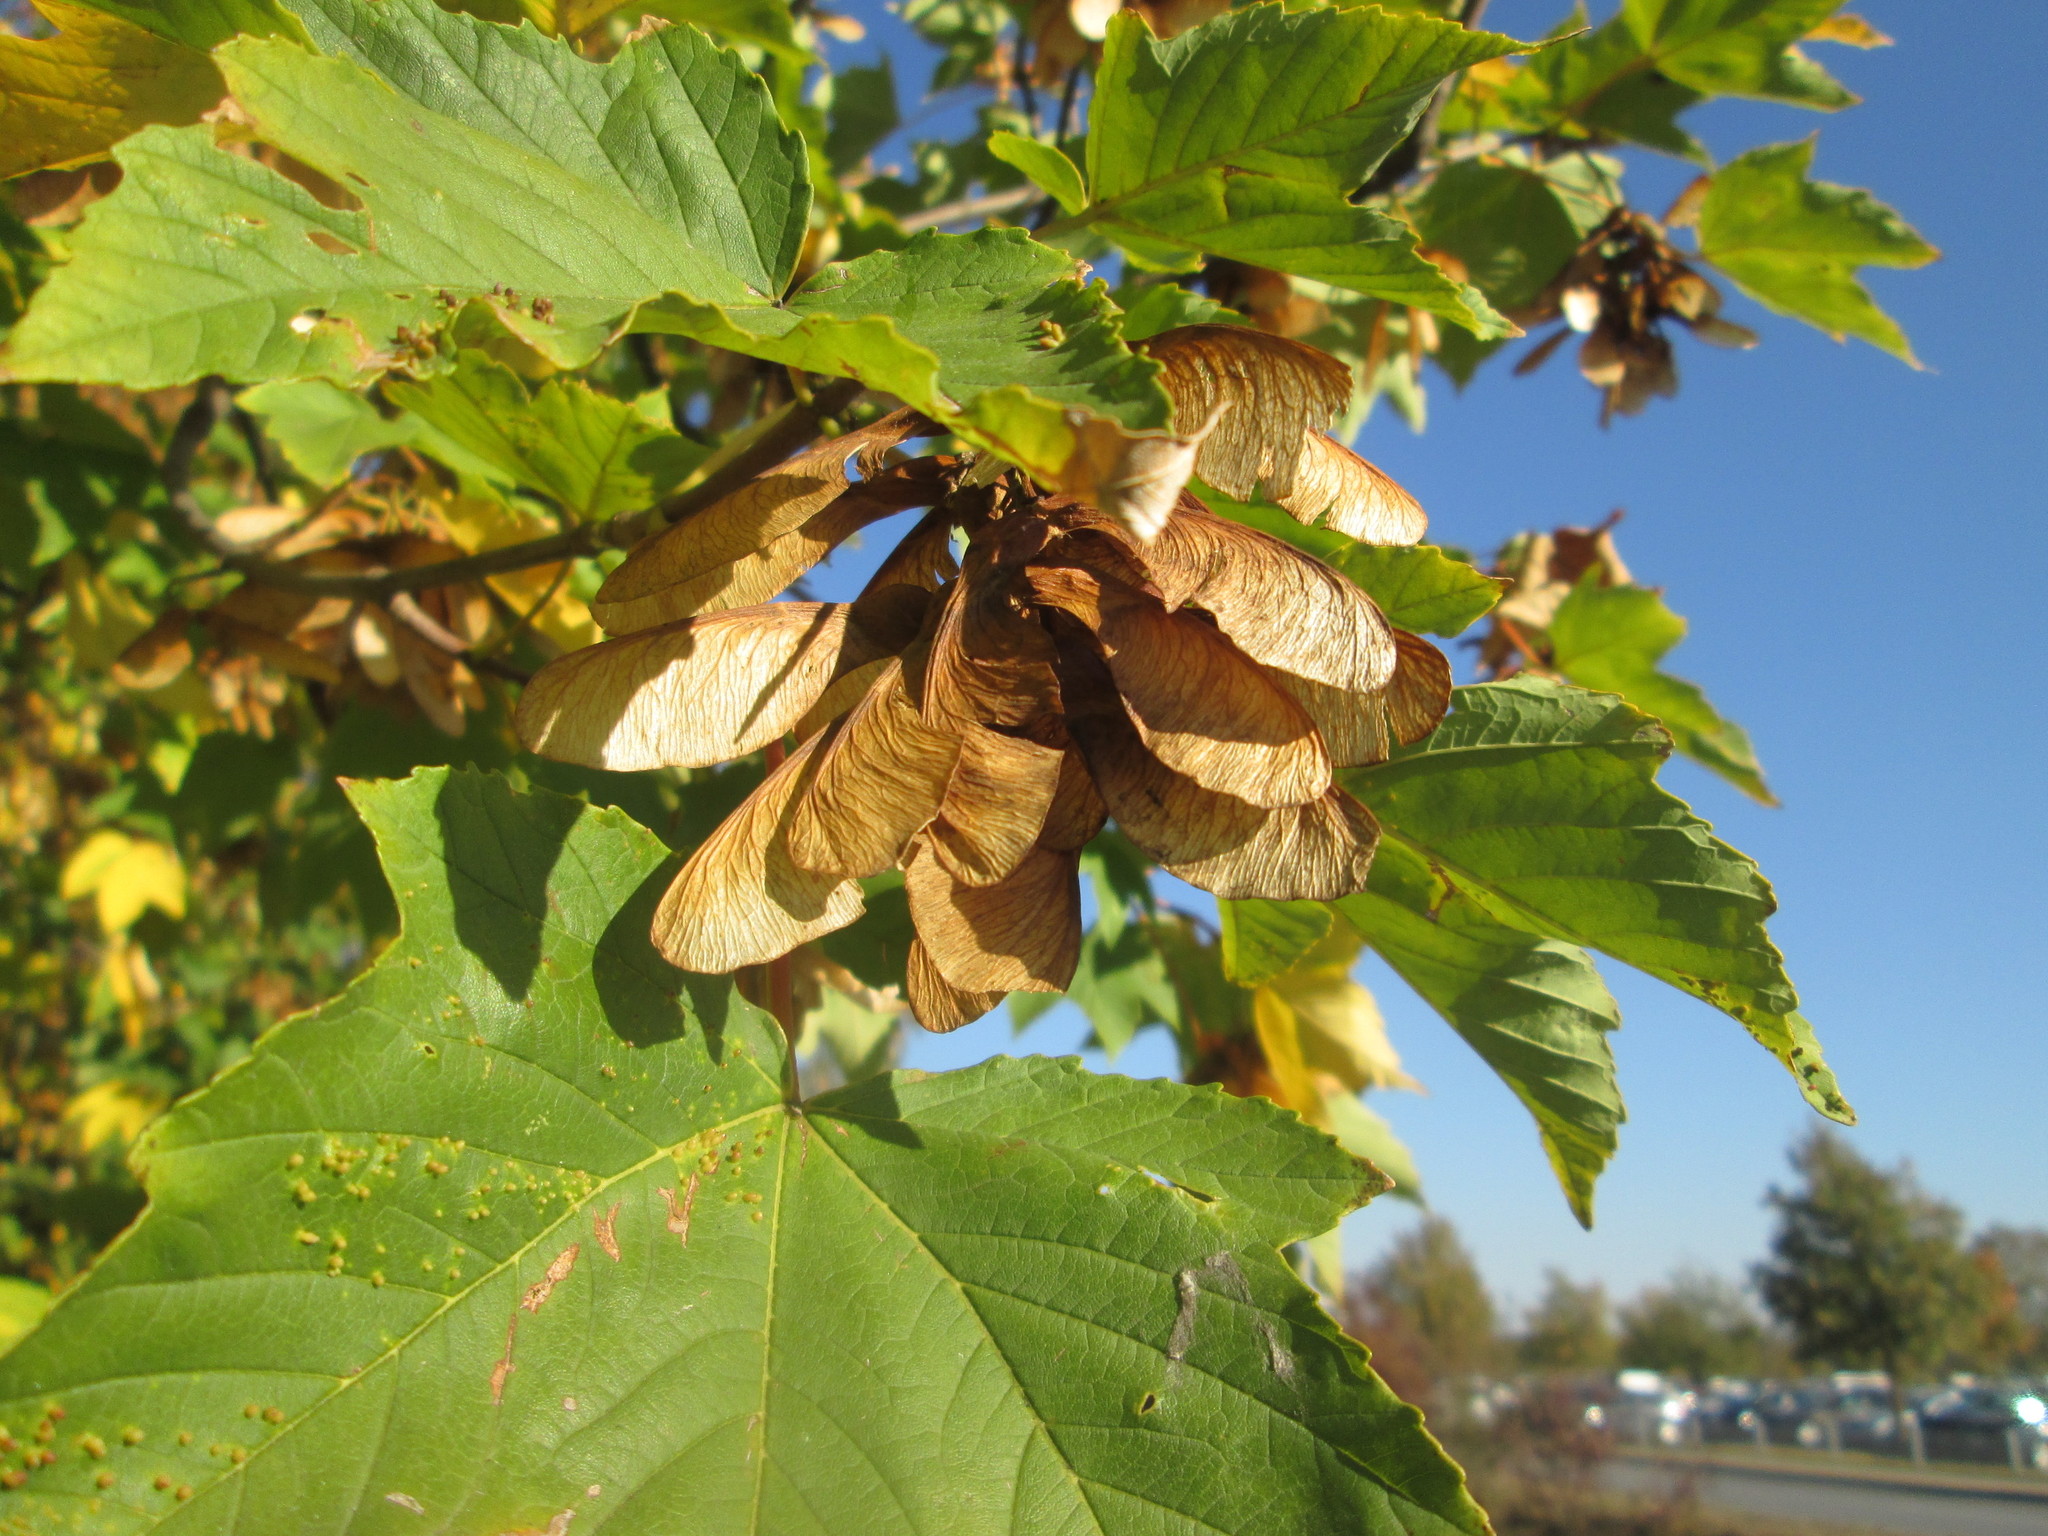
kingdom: Plantae
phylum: Tracheophyta
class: Magnoliopsida
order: Sapindales
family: Sapindaceae
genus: Acer
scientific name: Acer pseudoplatanus
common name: Sycamore
